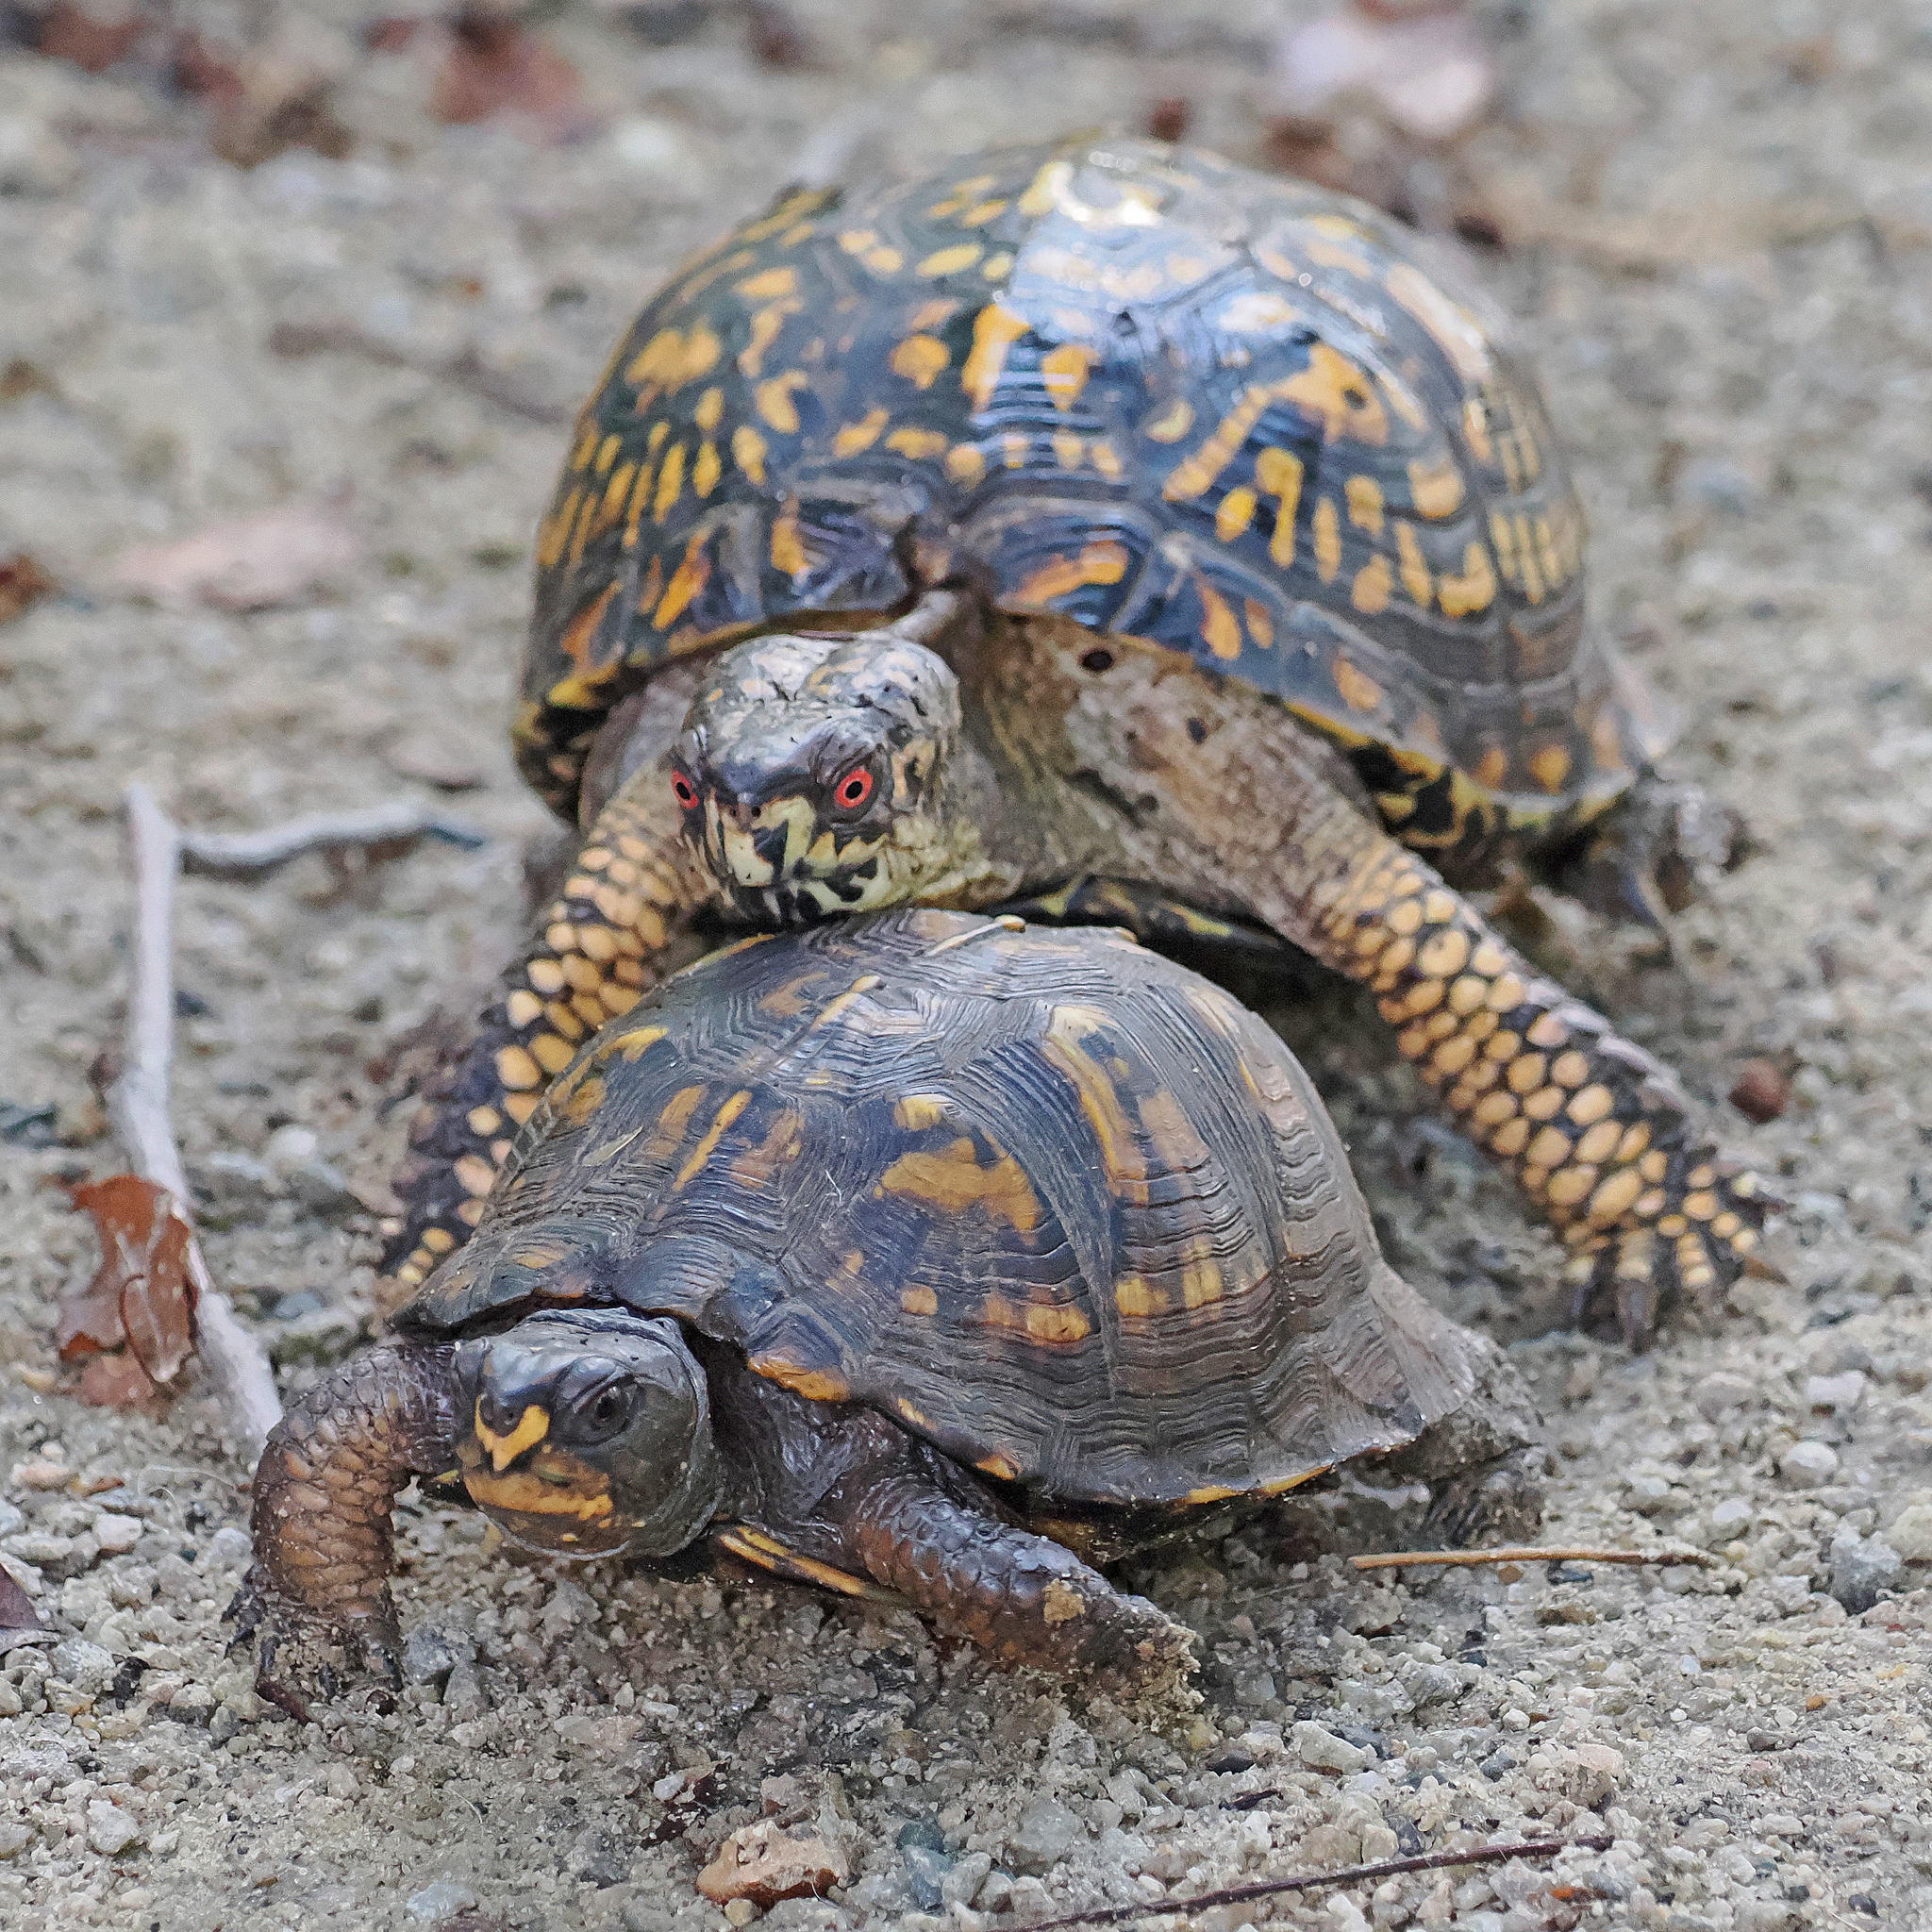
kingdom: Animalia
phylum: Chordata
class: Testudines
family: Emydidae
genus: Terrapene
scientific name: Terrapene carolina
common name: Common box turtle
